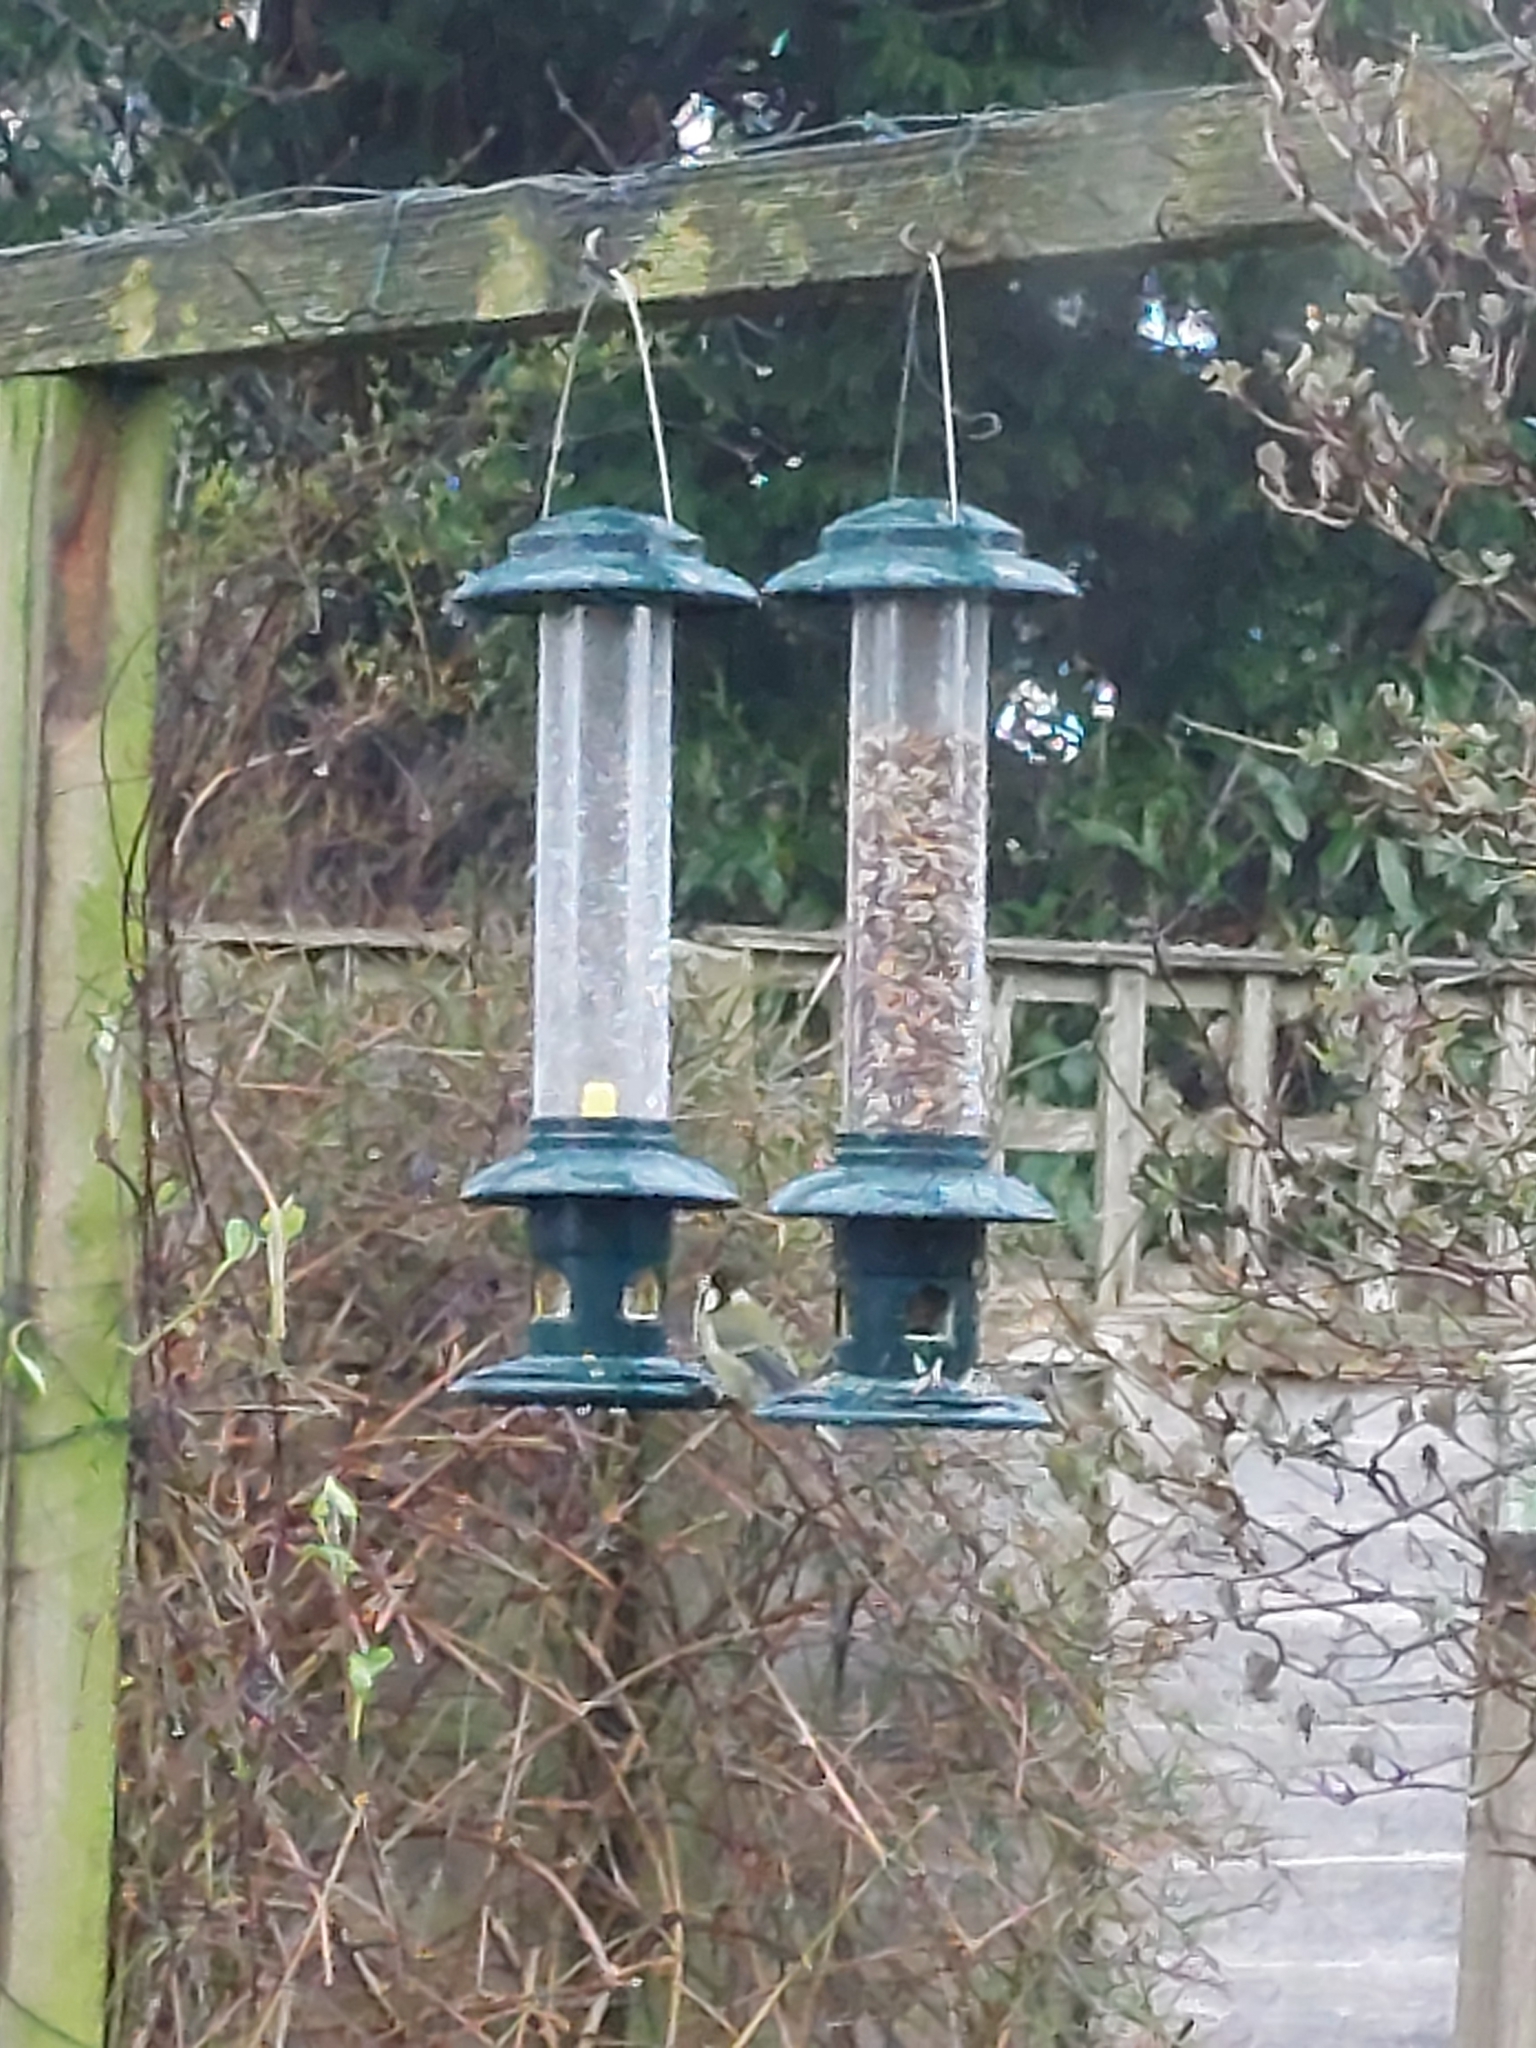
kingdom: Animalia
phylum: Chordata
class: Aves
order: Passeriformes
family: Paridae
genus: Parus
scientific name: Parus major
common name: Great tit
